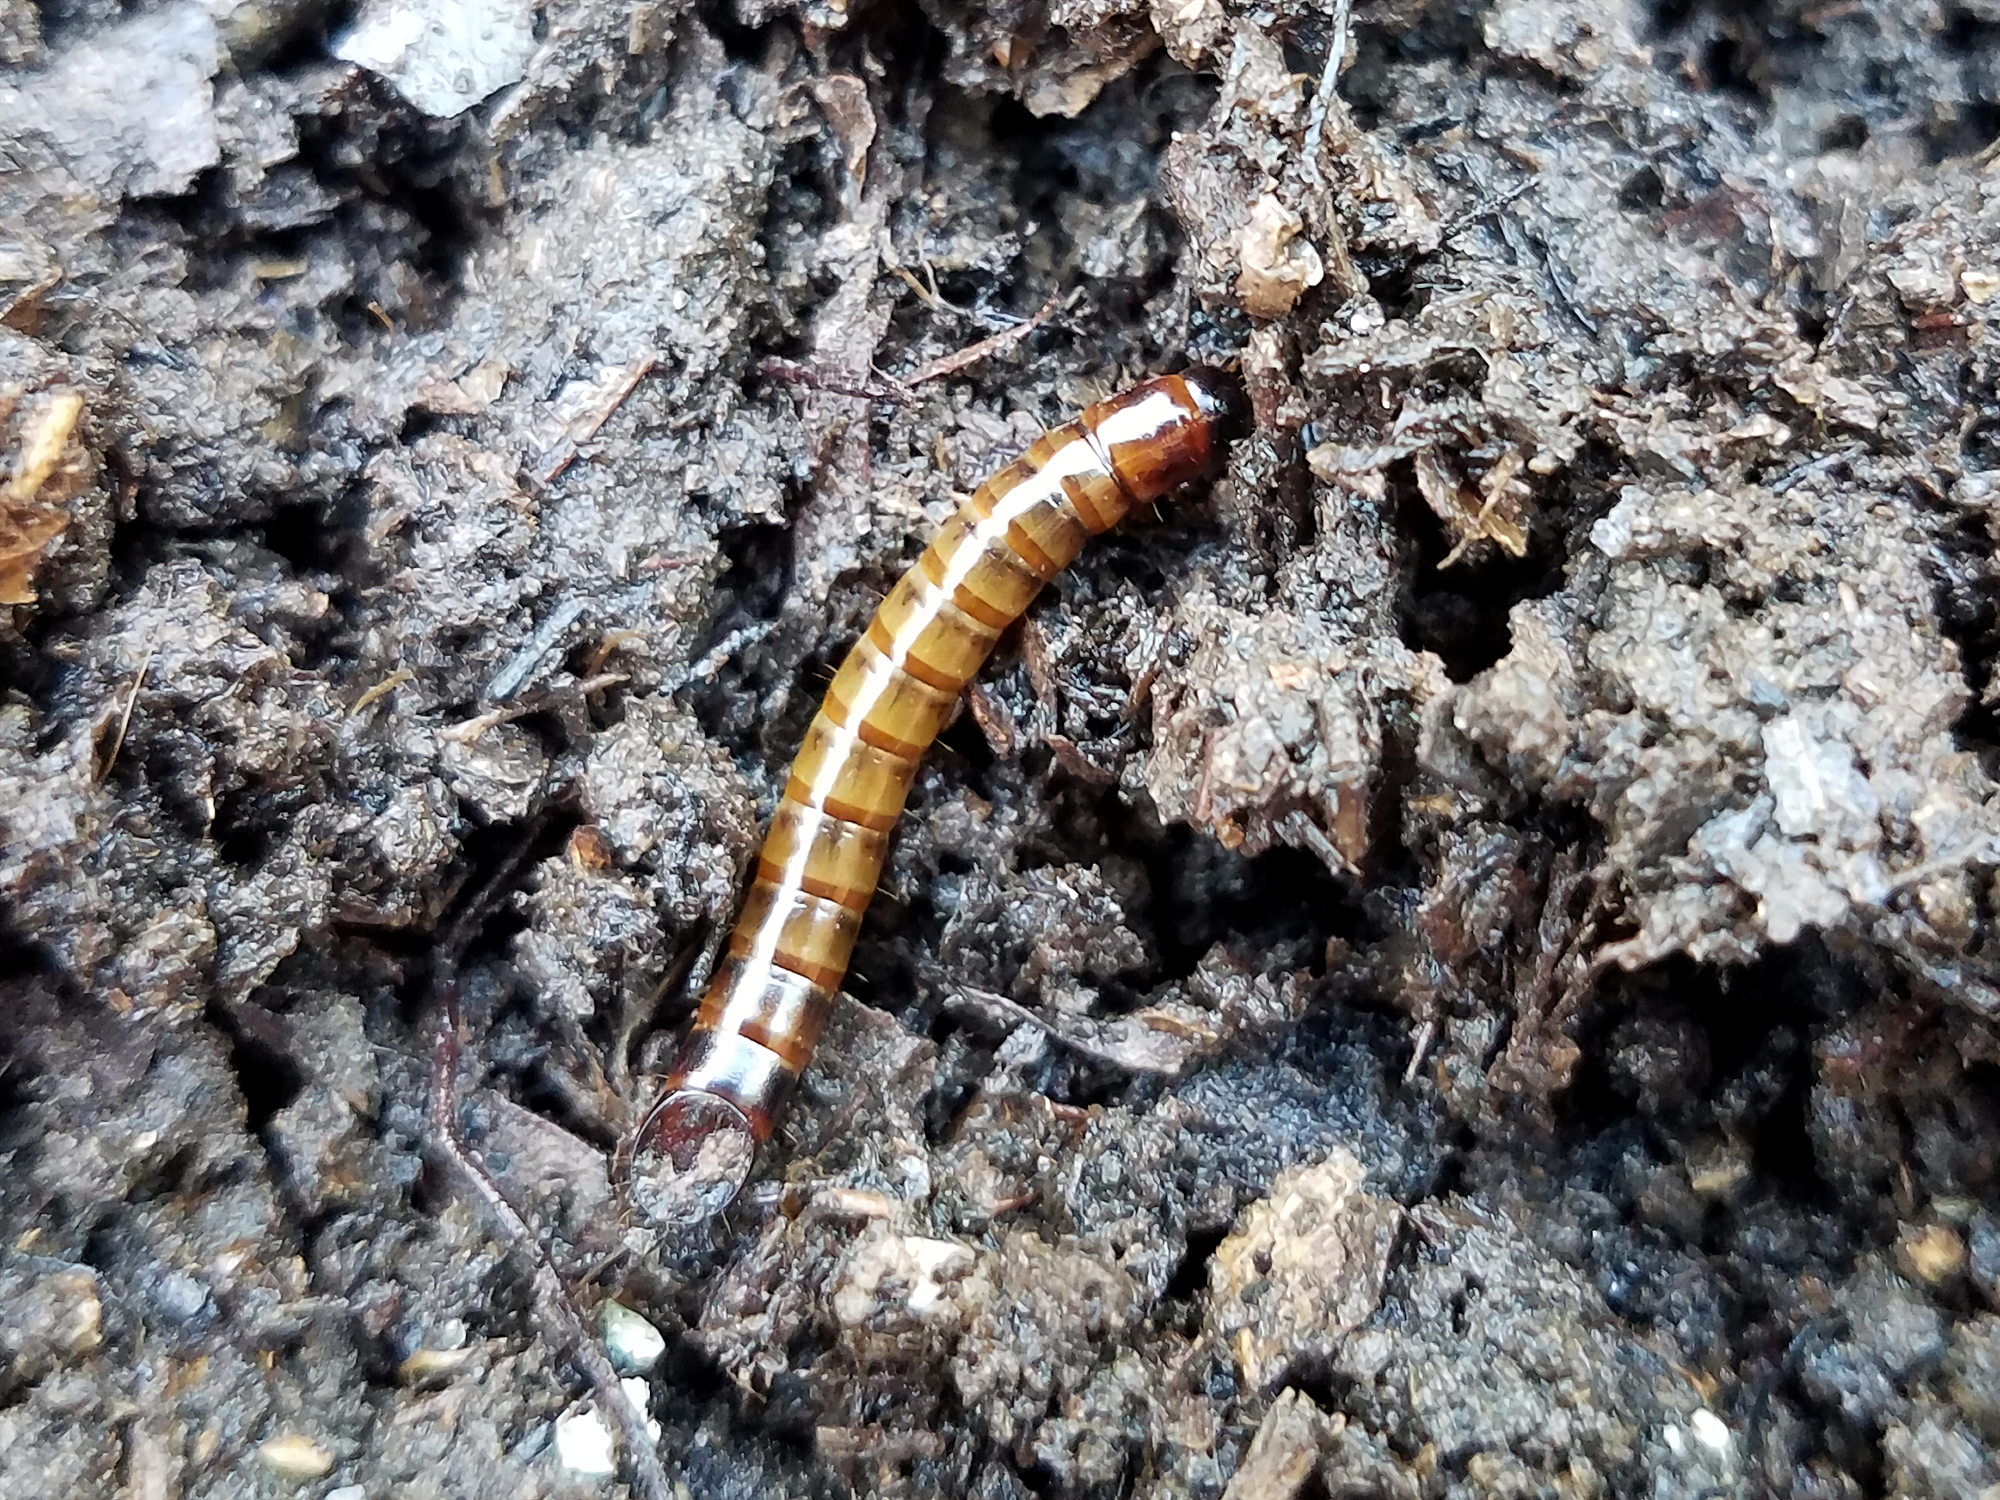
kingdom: Animalia
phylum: Arthropoda
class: Insecta
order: Coleoptera
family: Tenebrionidae
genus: Meracantha
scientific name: Meracantha contracta
